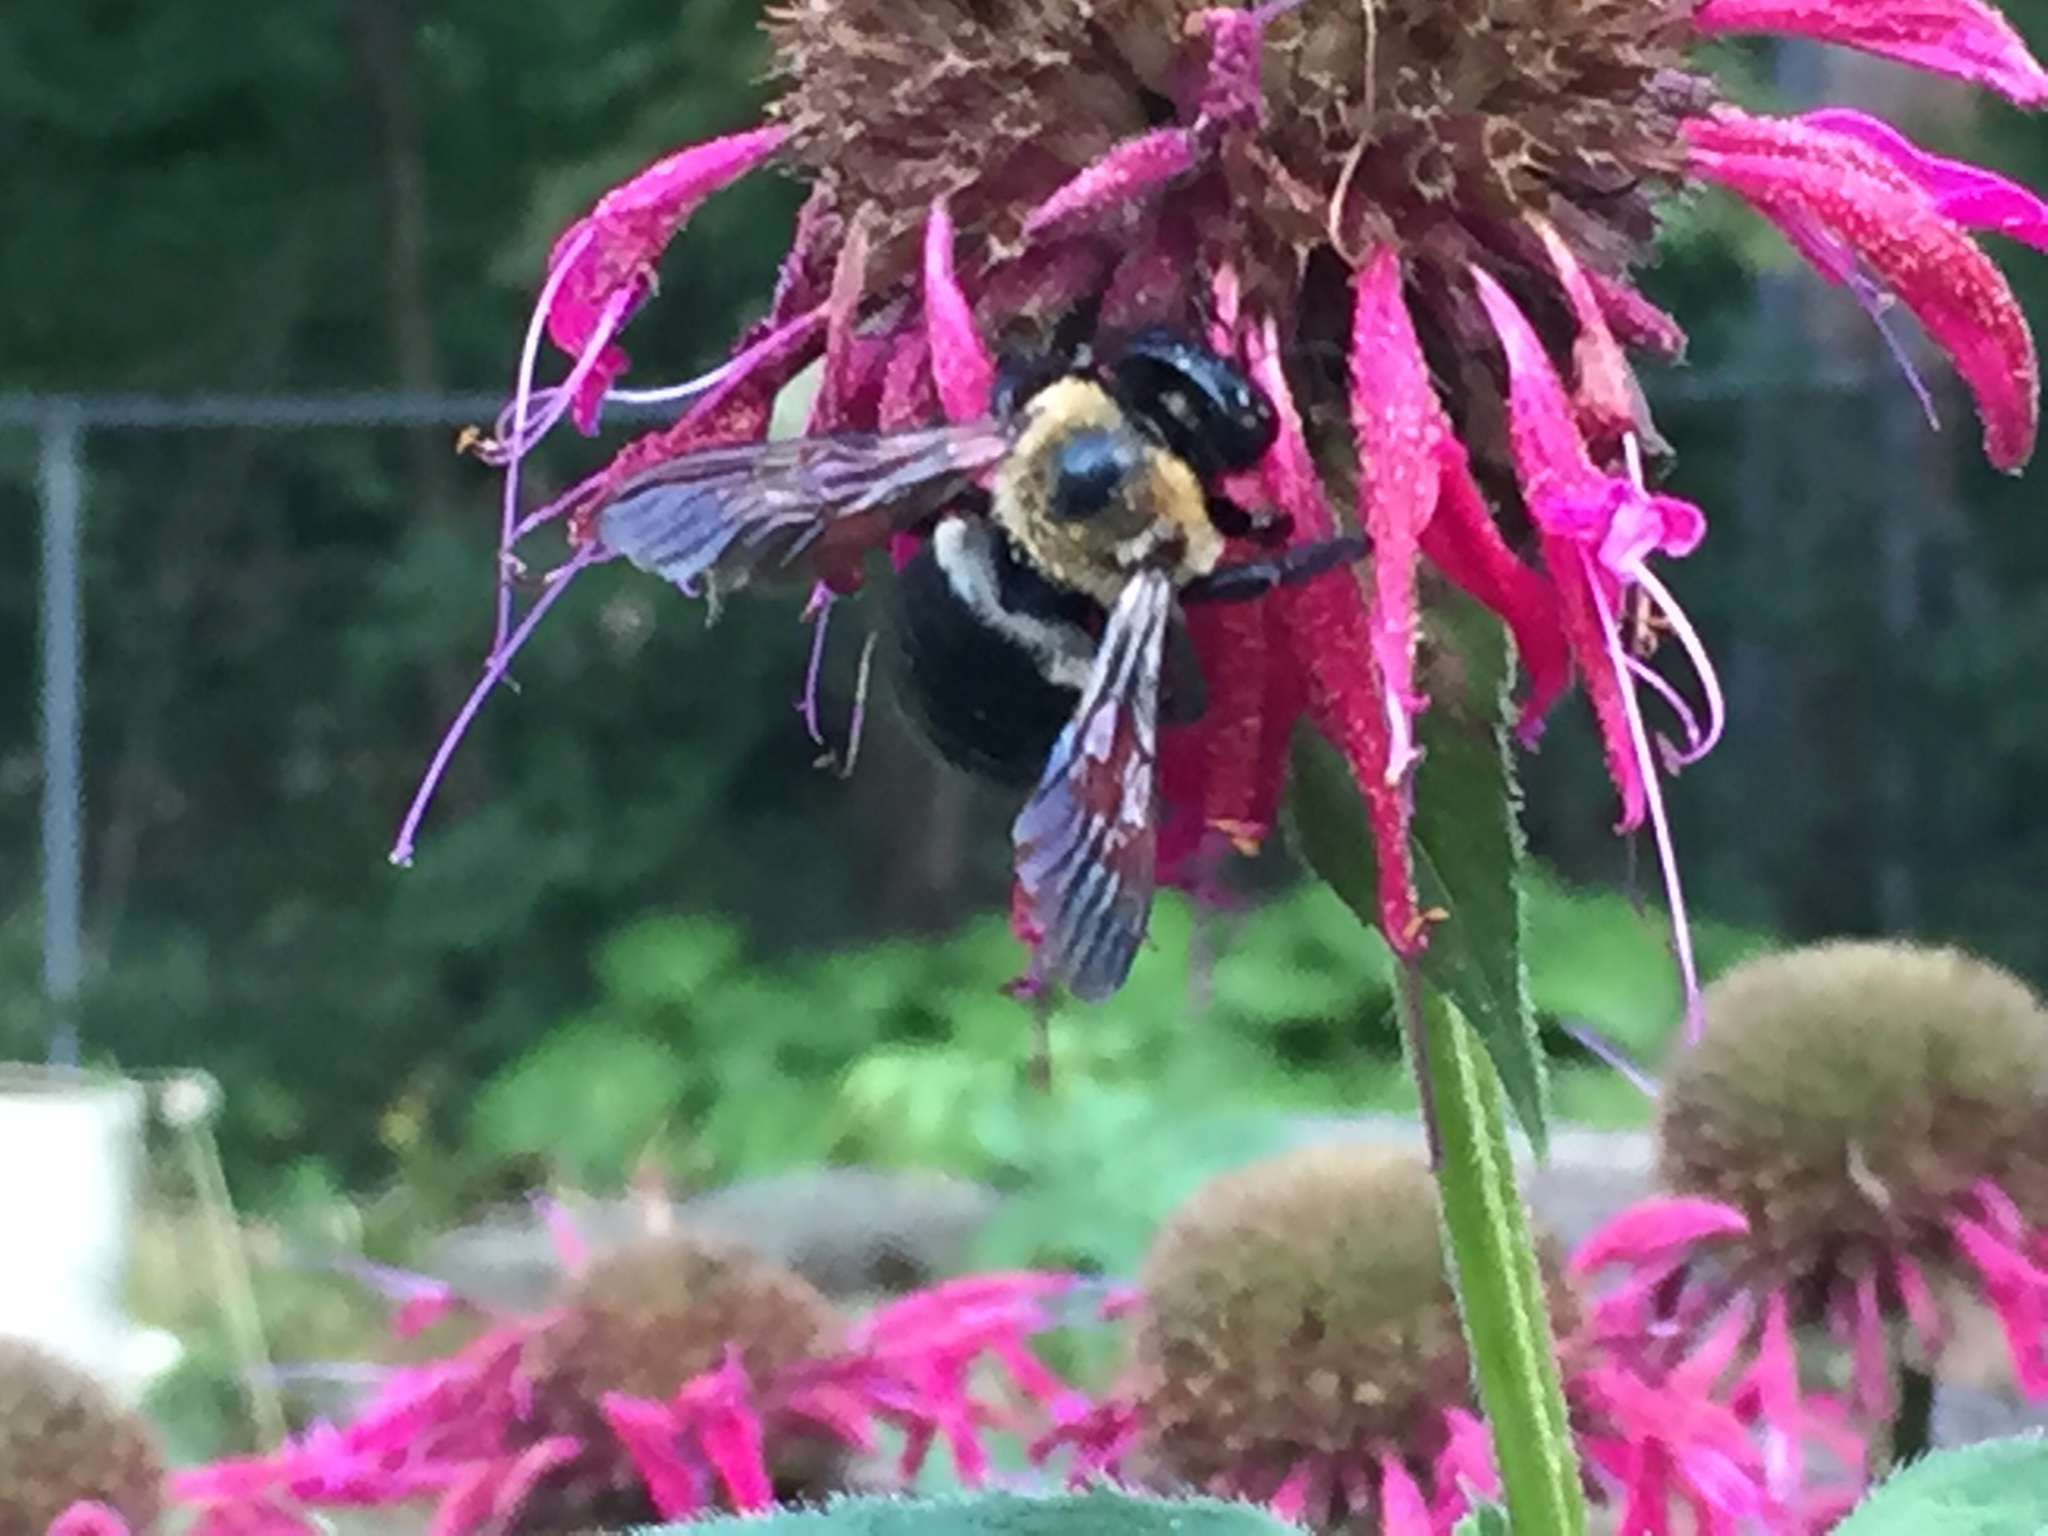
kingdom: Animalia
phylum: Arthropoda
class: Insecta
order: Hymenoptera
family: Apidae
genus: Xylocopa
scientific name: Xylocopa virginica
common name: Carpenter bee
